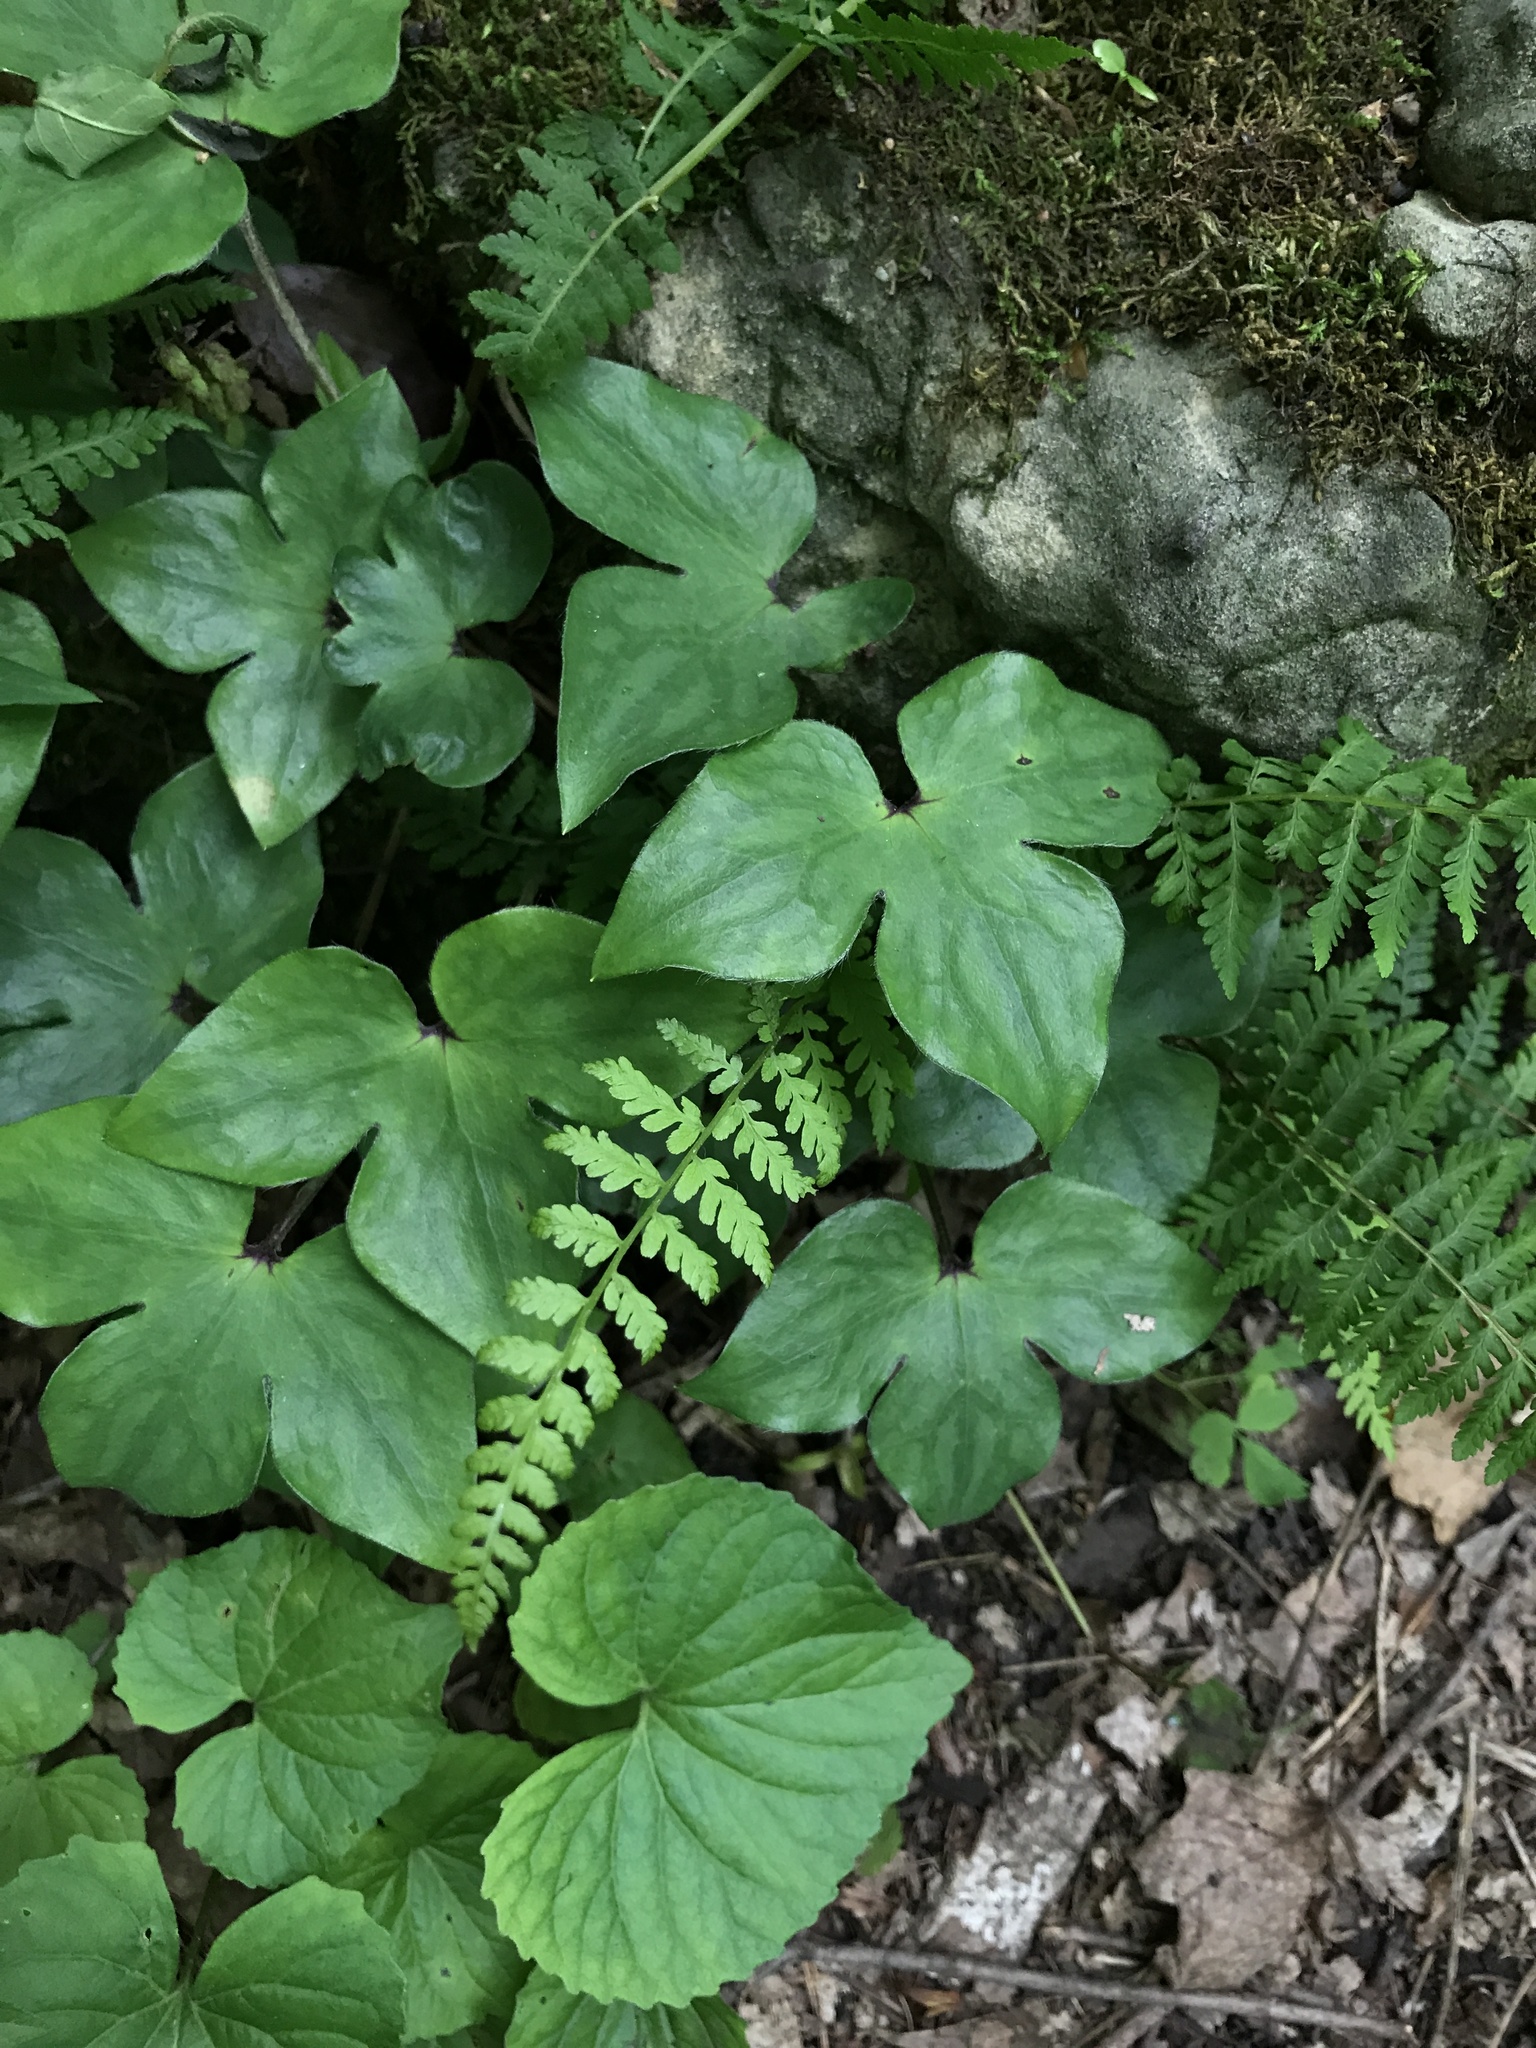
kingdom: Plantae
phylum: Tracheophyta
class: Magnoliopsida
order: Ranunculales
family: Ranunculaceae
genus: Hepatica
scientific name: Hepatica acutiloba
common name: Sharp-lobed hepatica
